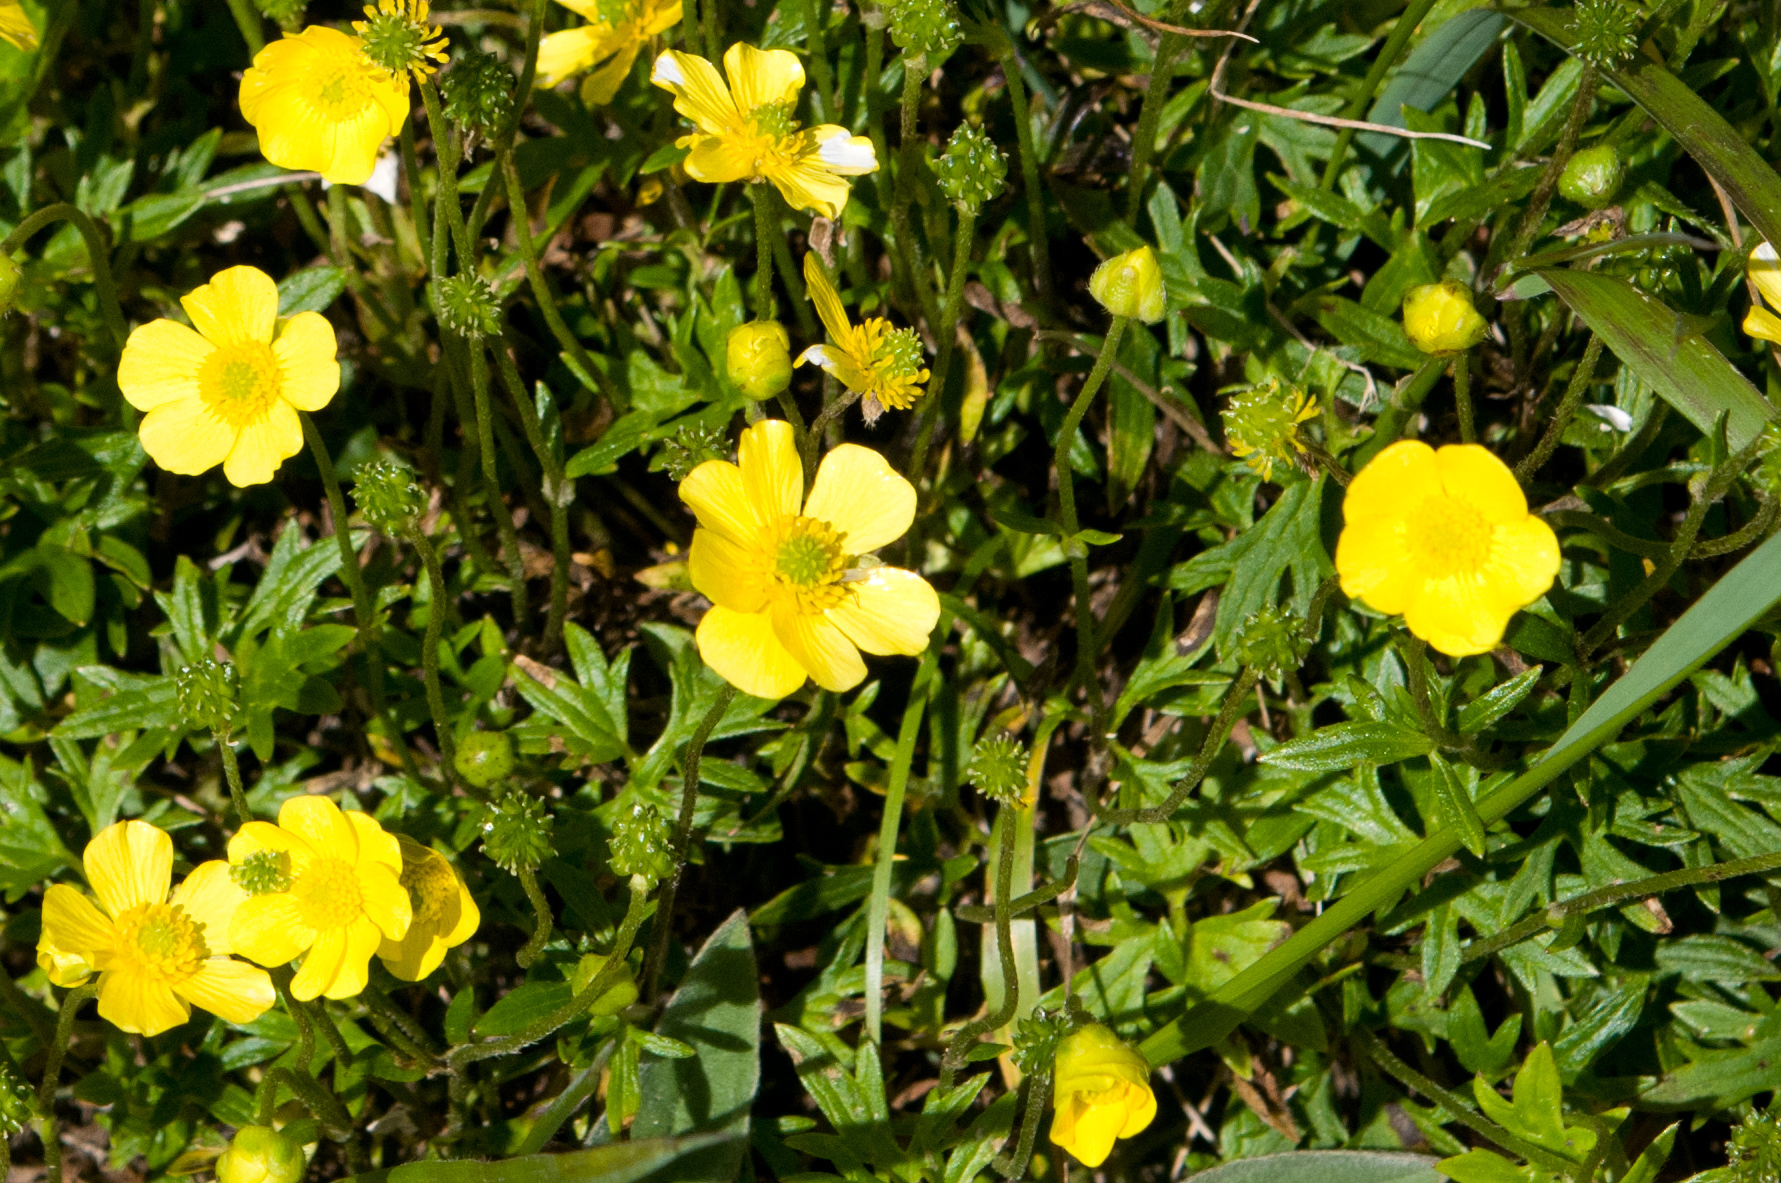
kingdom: Plantae
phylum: Tracheophyta
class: Magnoliopsida
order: Ranunculales
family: Ranunculaceae
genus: Ranunculus
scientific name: Ranunculus formosa-montanus
